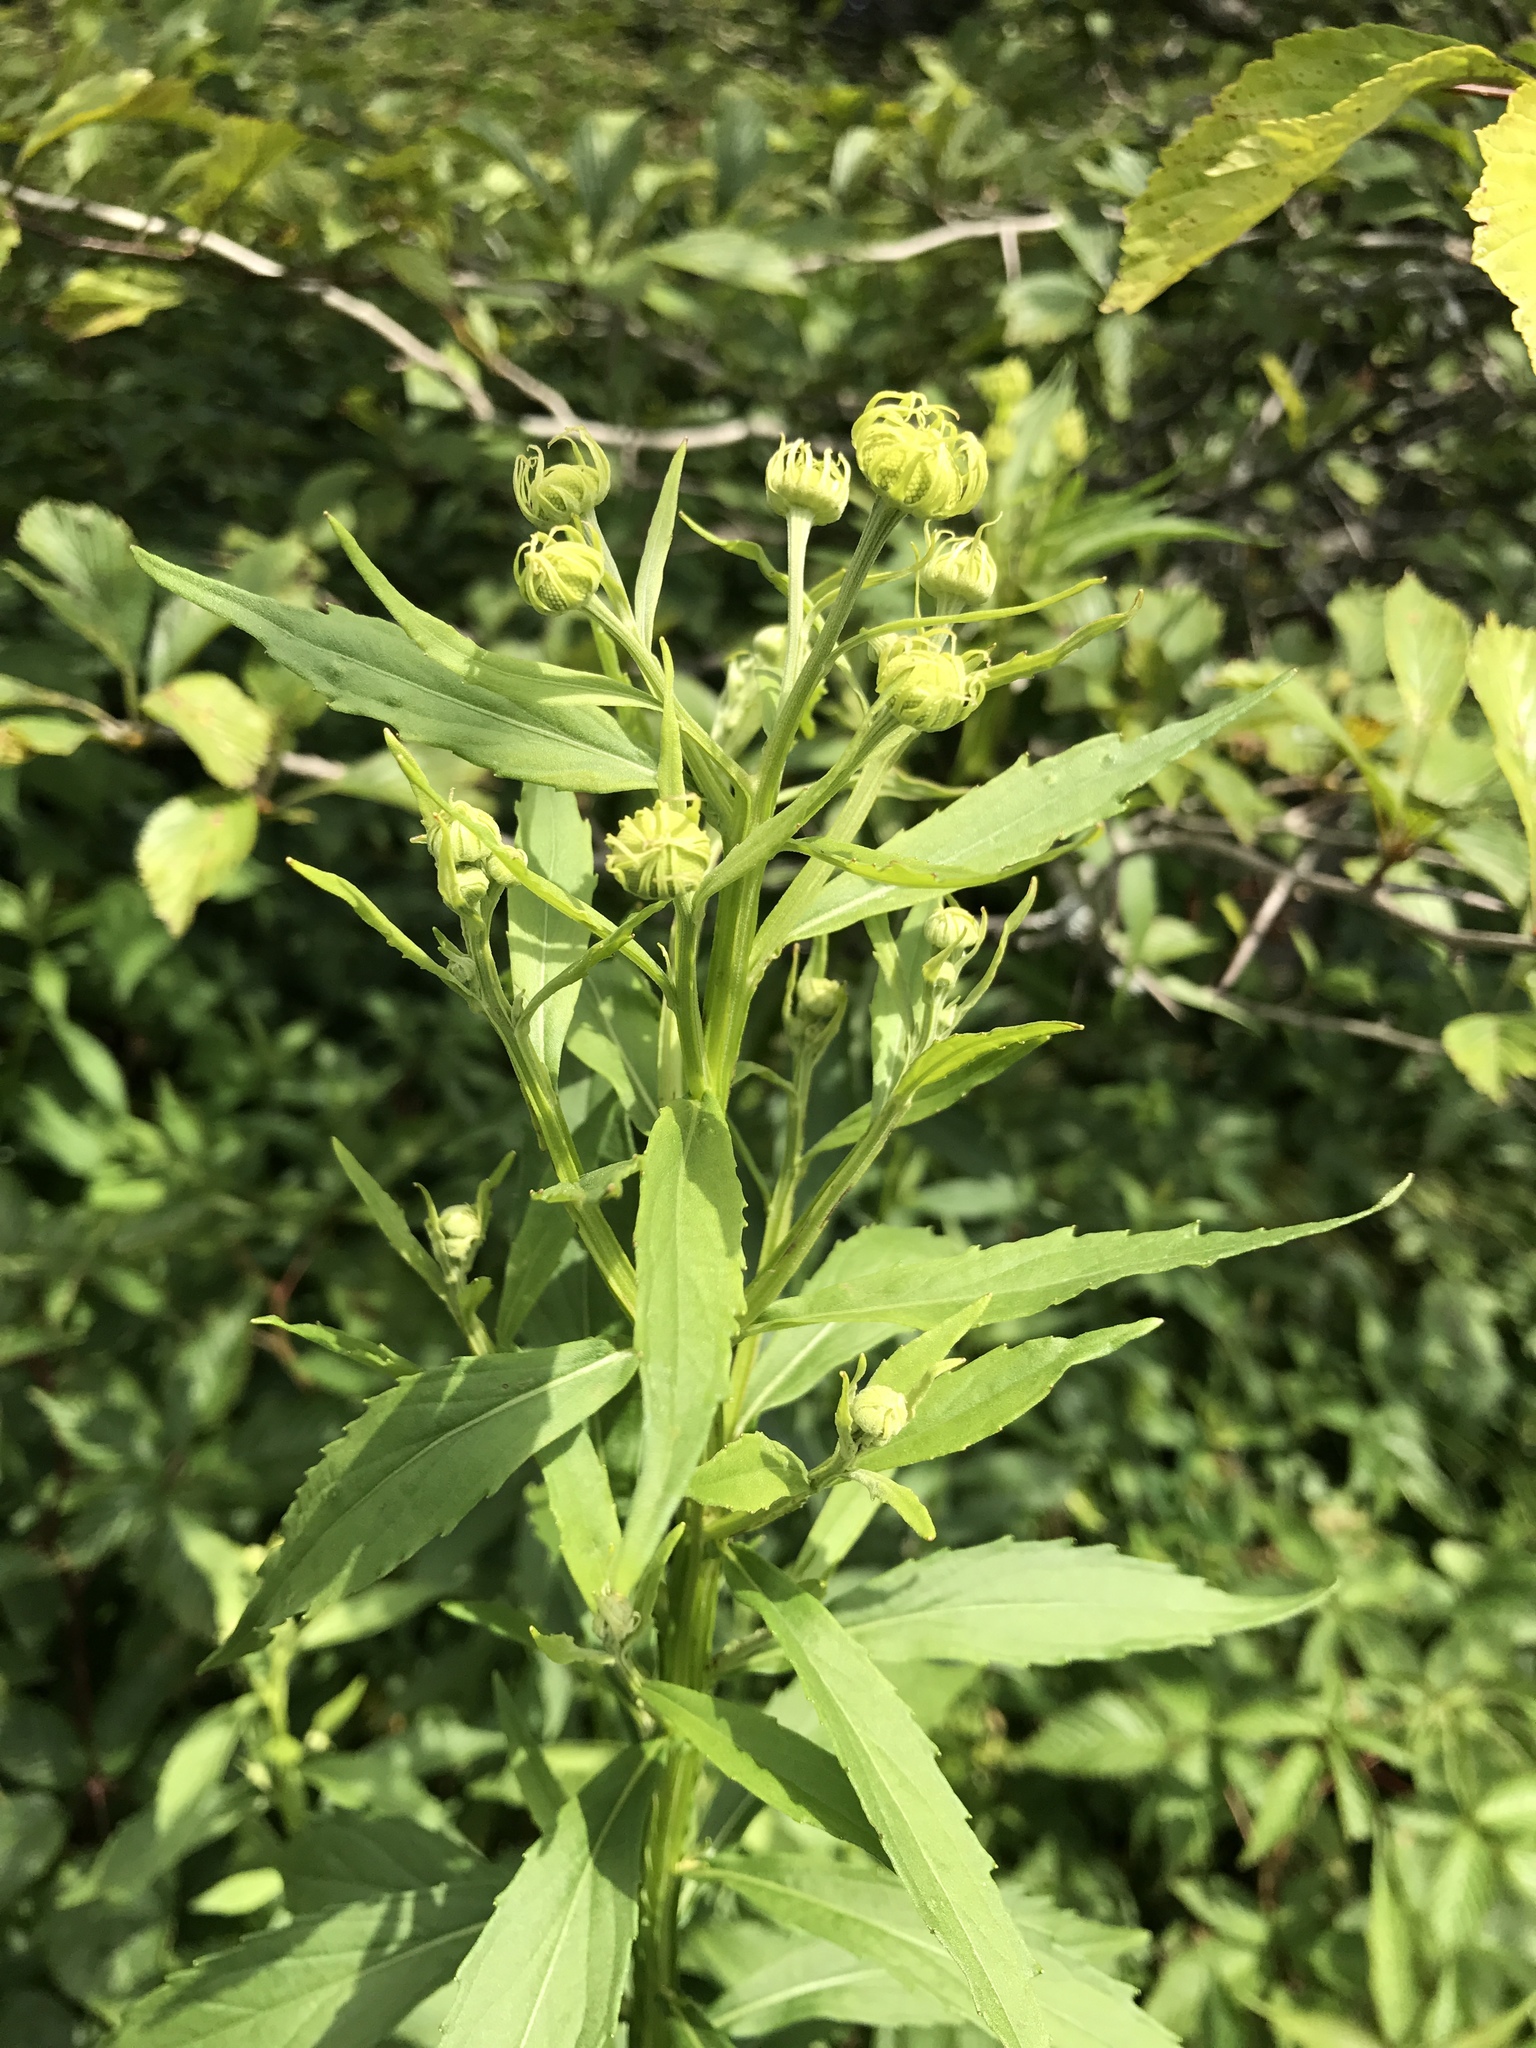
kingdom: Plantae
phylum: Tracheophyta
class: Magnoliopsida
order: Asterales
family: Asteraceae
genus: Helenium
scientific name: Helenium autumnale
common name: Sneezeweed
